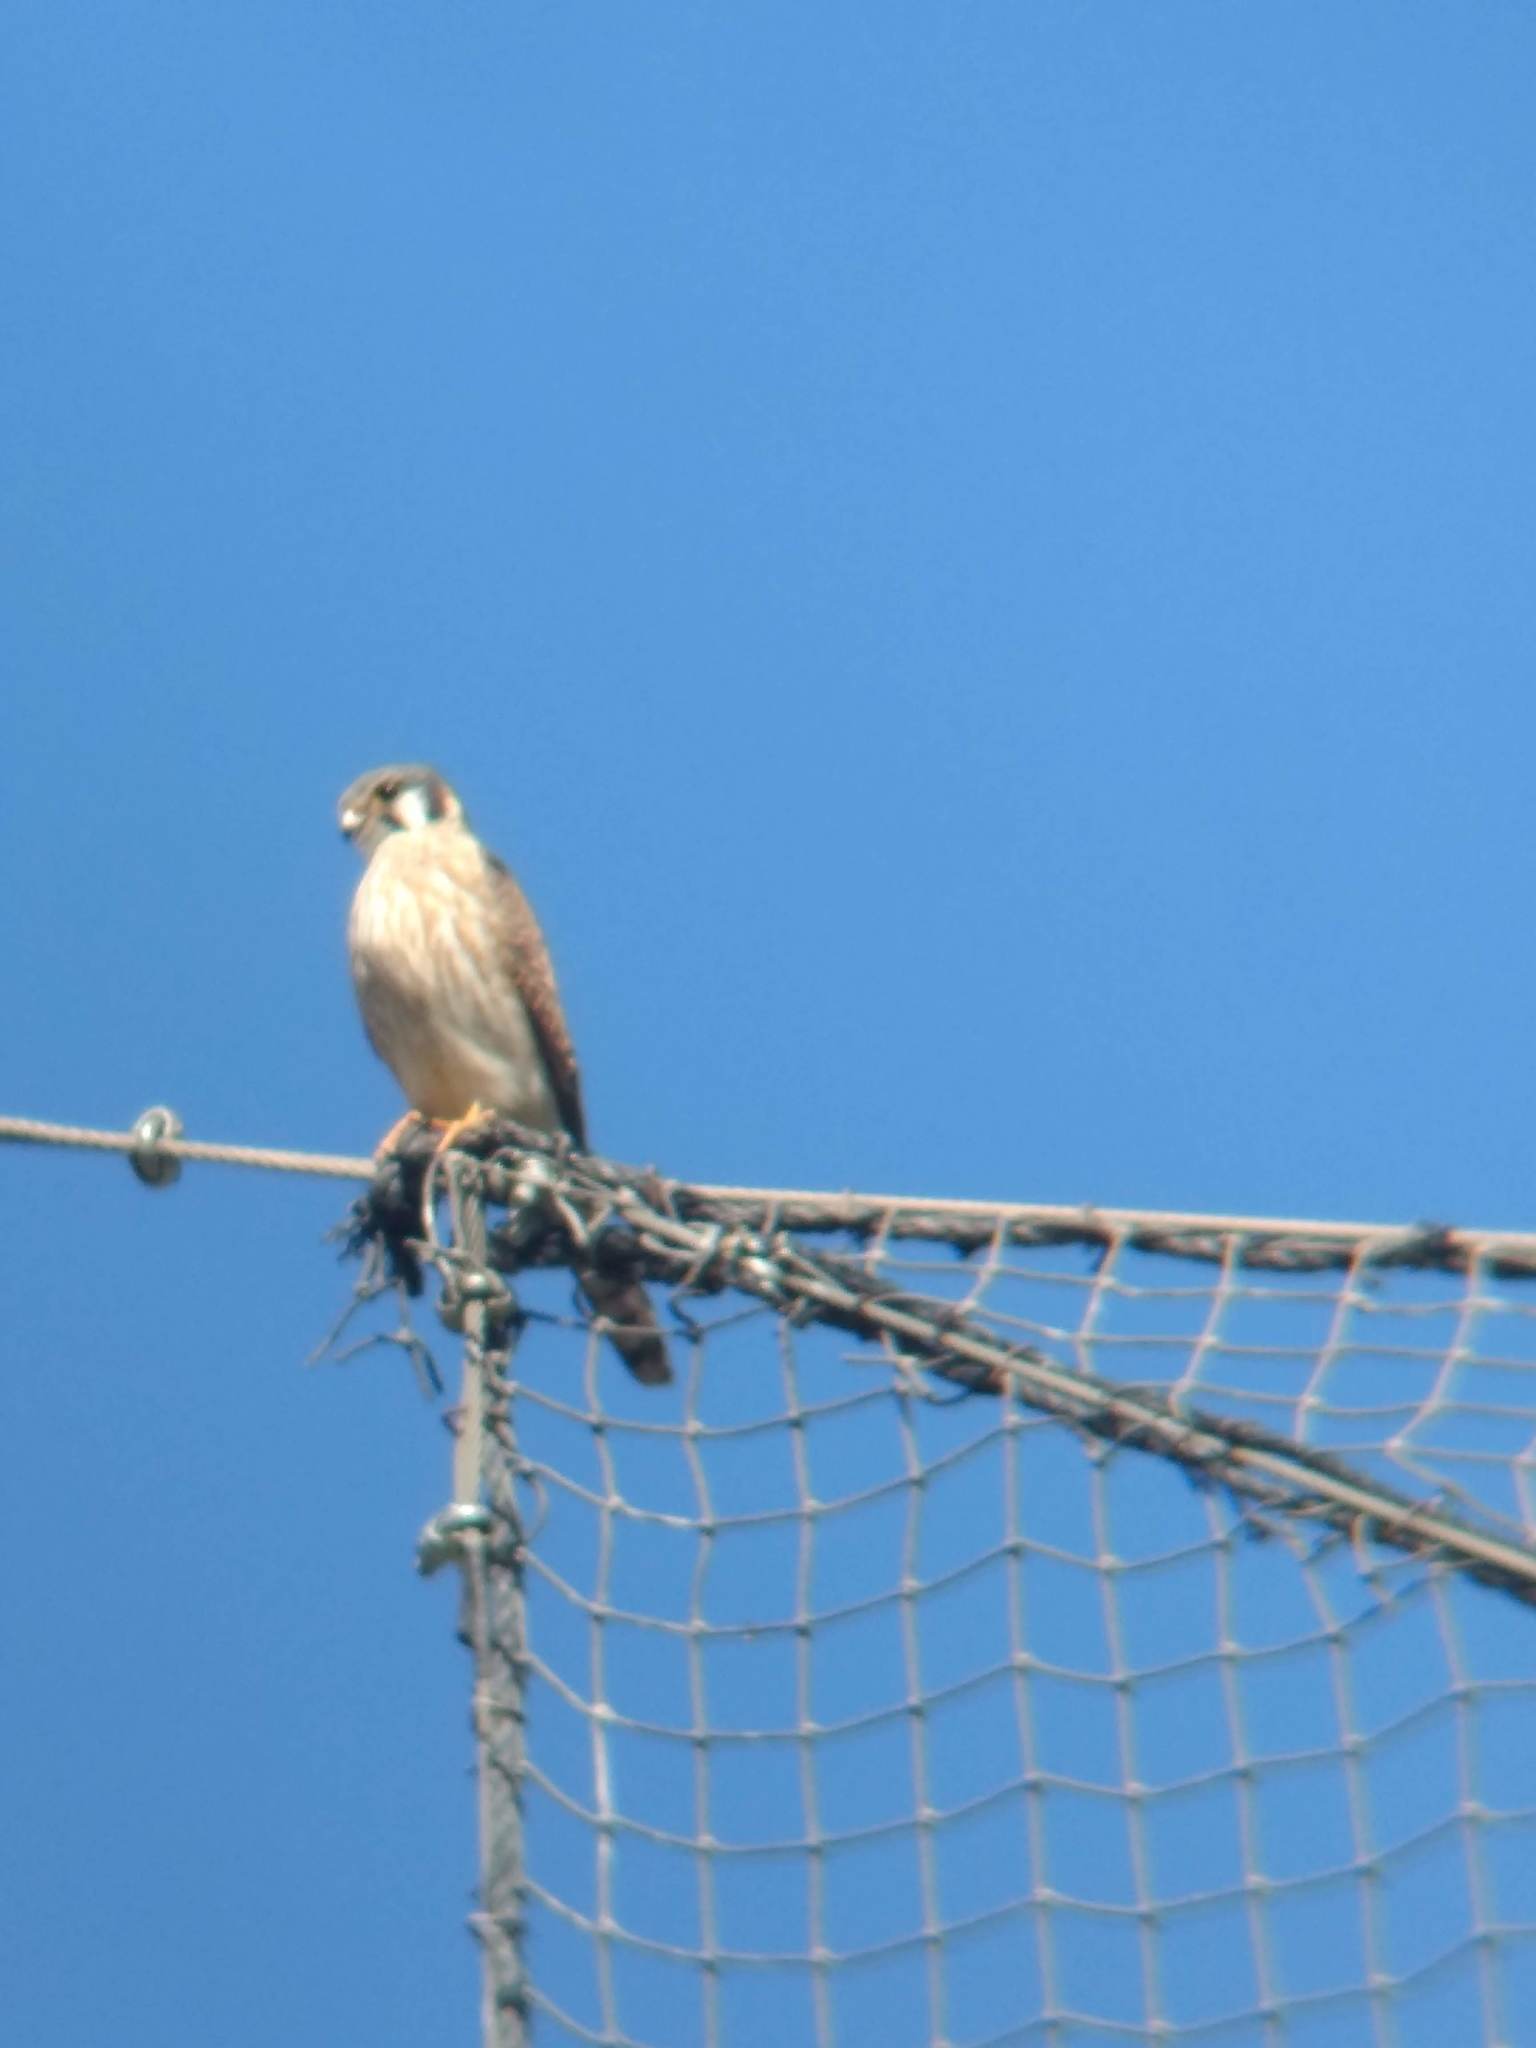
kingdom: Animalia
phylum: Chordata
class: Aves
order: Falconiformes
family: Falconidae
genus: Falco
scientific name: Falco sparverius
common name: American kestrel
